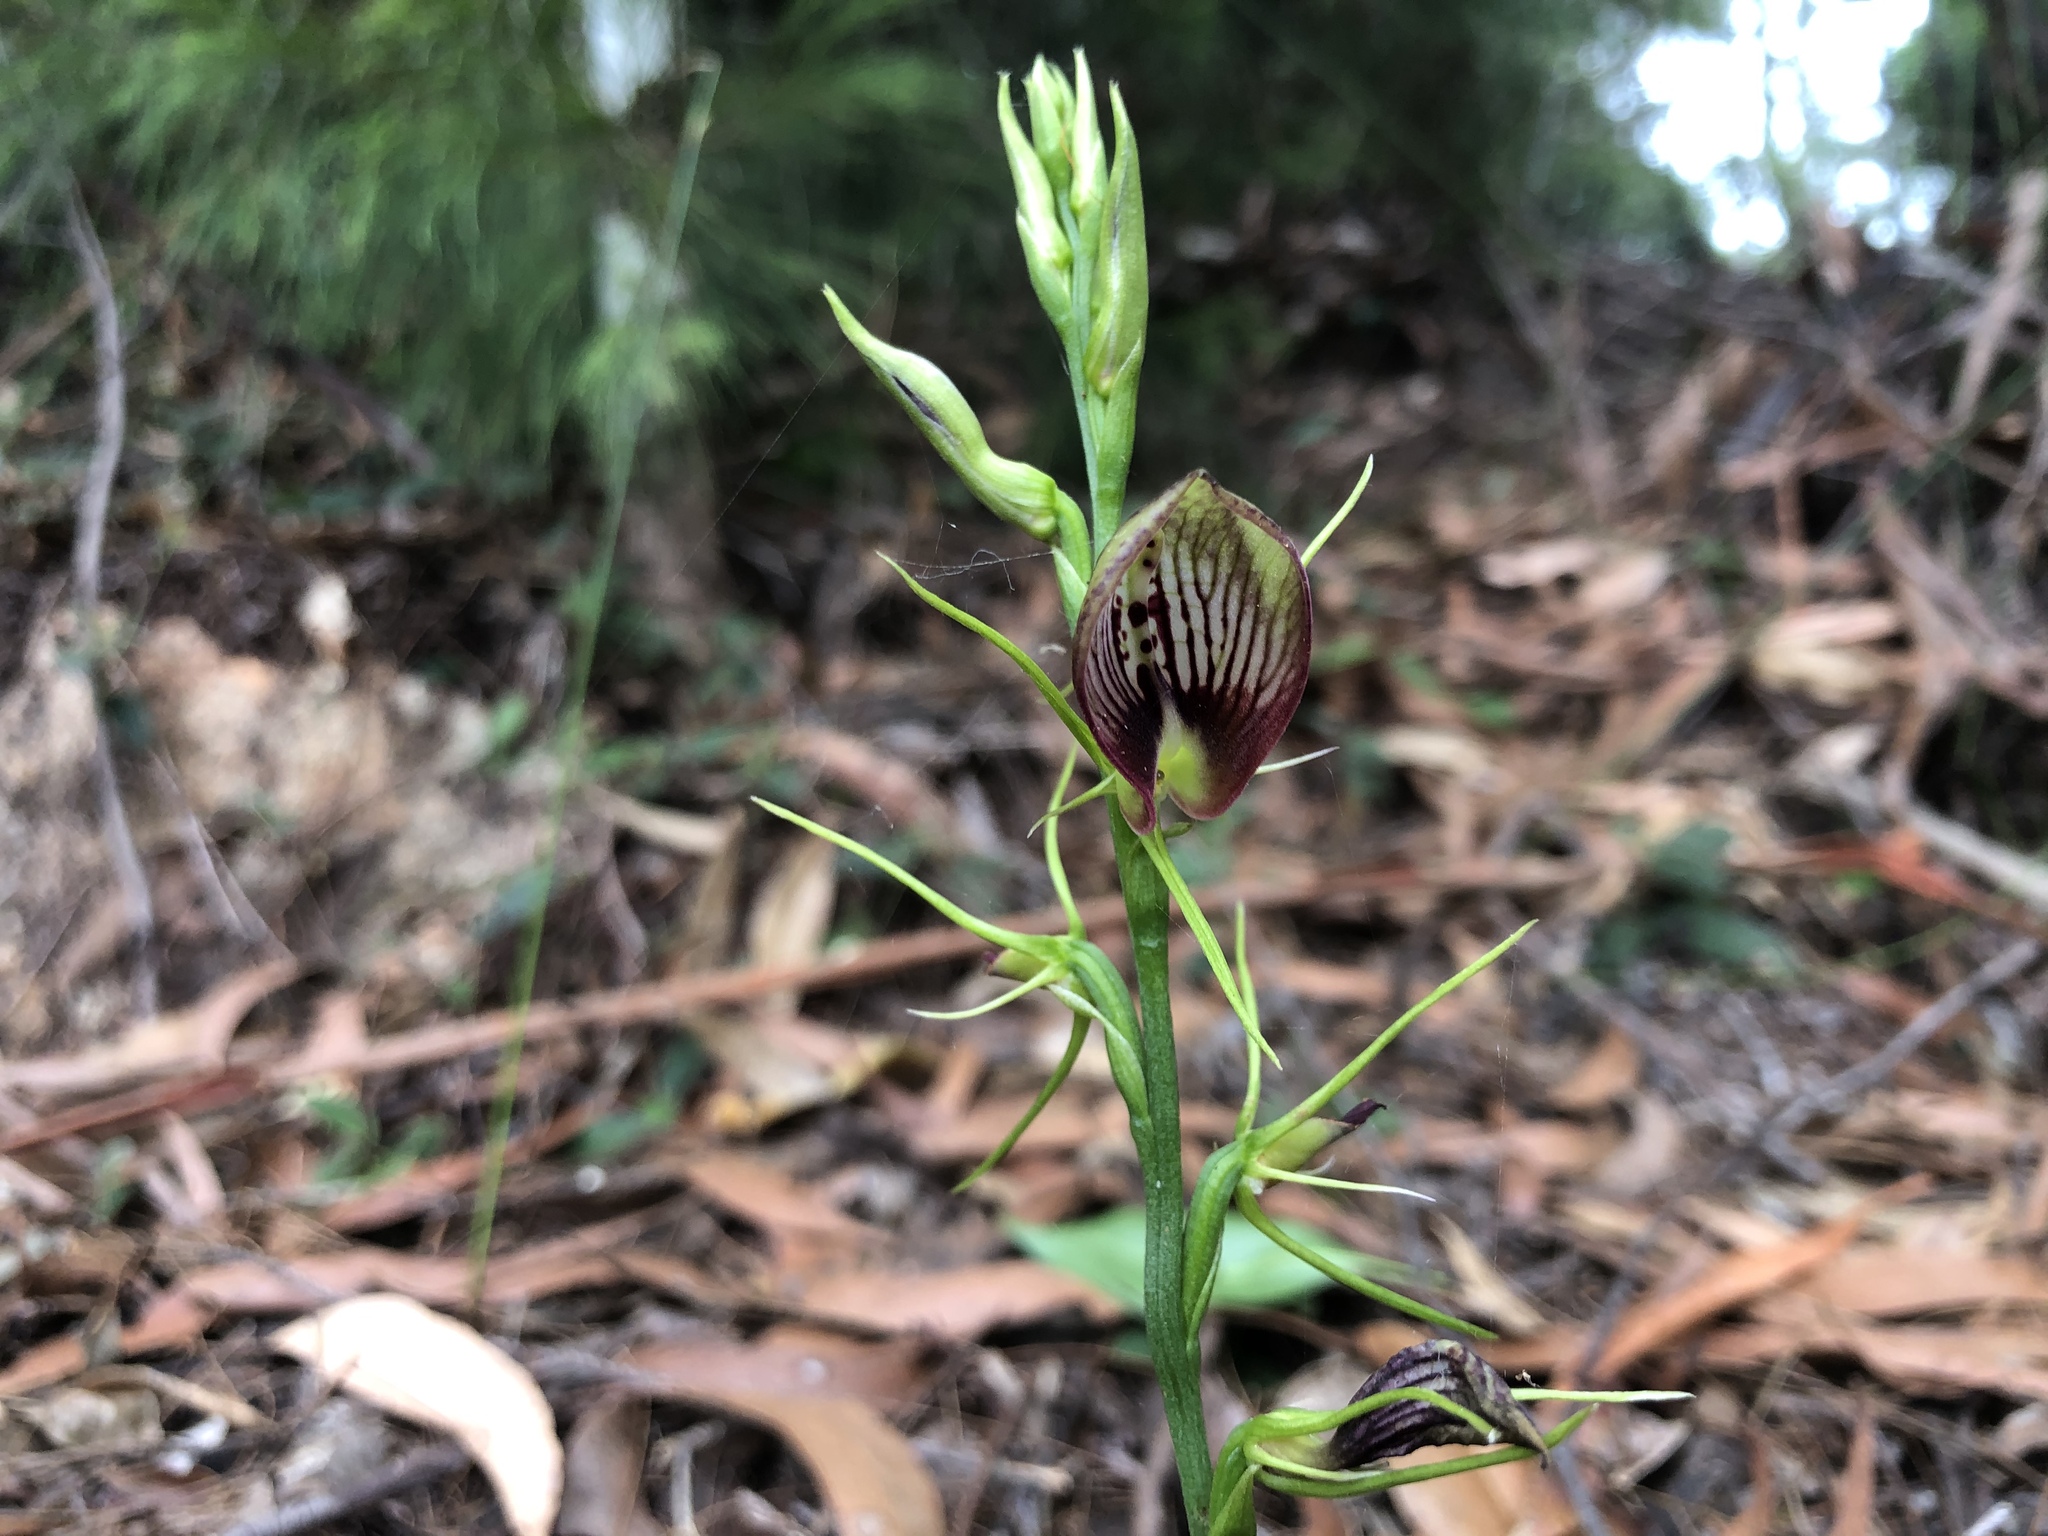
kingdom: Plantae
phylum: Tracheophyta
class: Liliopsida
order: Asparagales
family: Orchidaceae
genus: Cryptostylis
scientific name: Cryptostylis erecta
